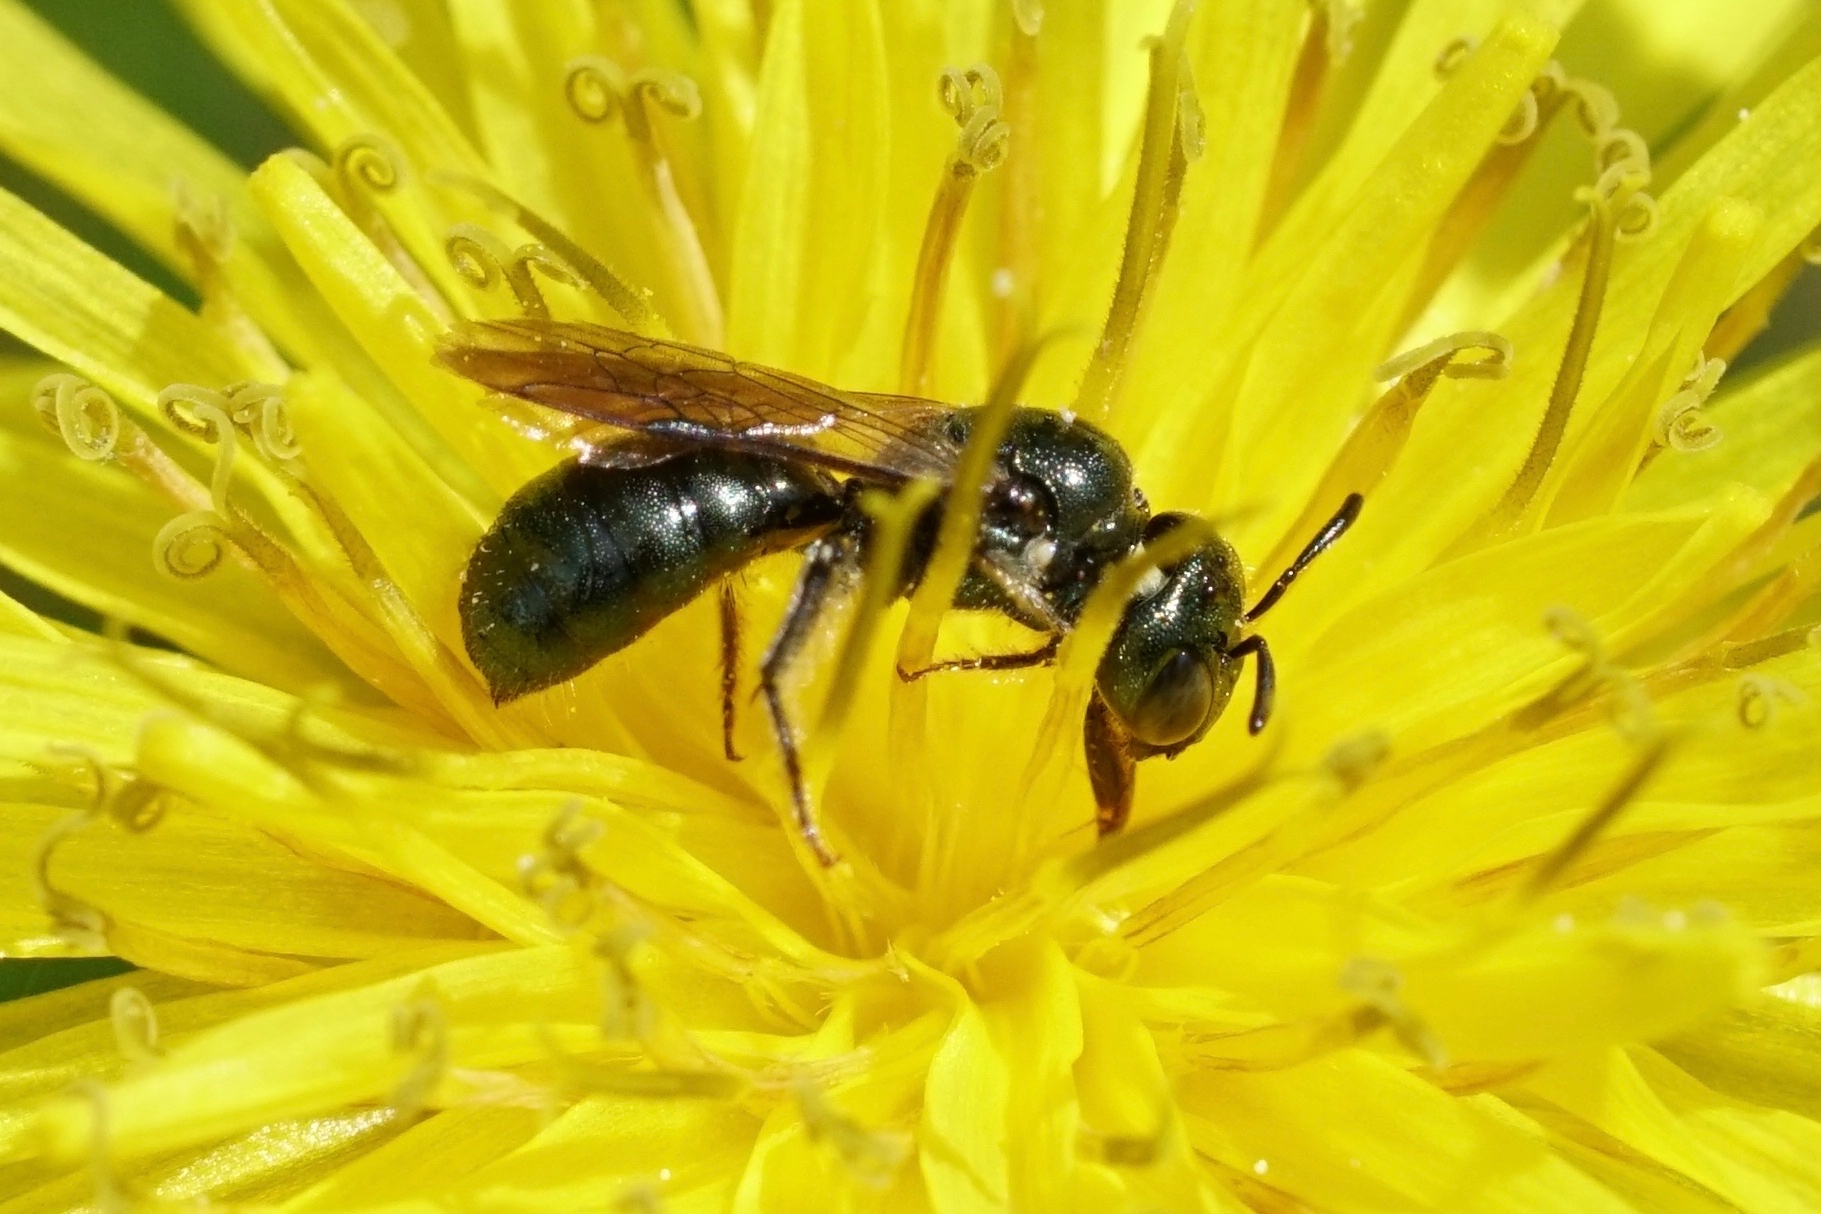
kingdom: Animalia
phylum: Arthropoda
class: Insecta
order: Hymenoptera
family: Apidae
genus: Zadontomerus
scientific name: Zadontomerus
